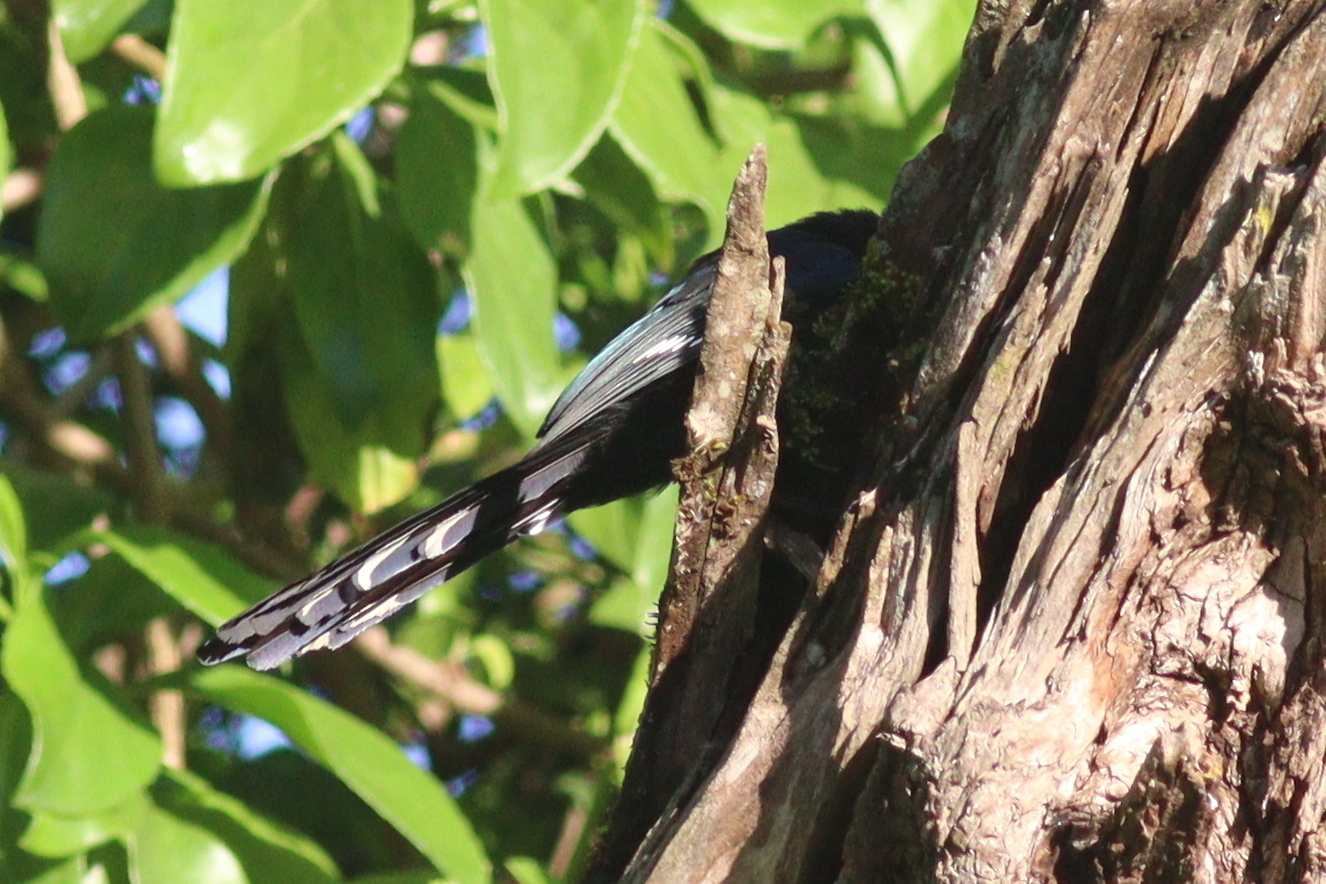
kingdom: Animalia
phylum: Chordata
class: Aves
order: Bucerotiformes
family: Phoeniculidae
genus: Phoeniculus
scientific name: Phoeniculus purpureus
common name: Green woodhoopoe
